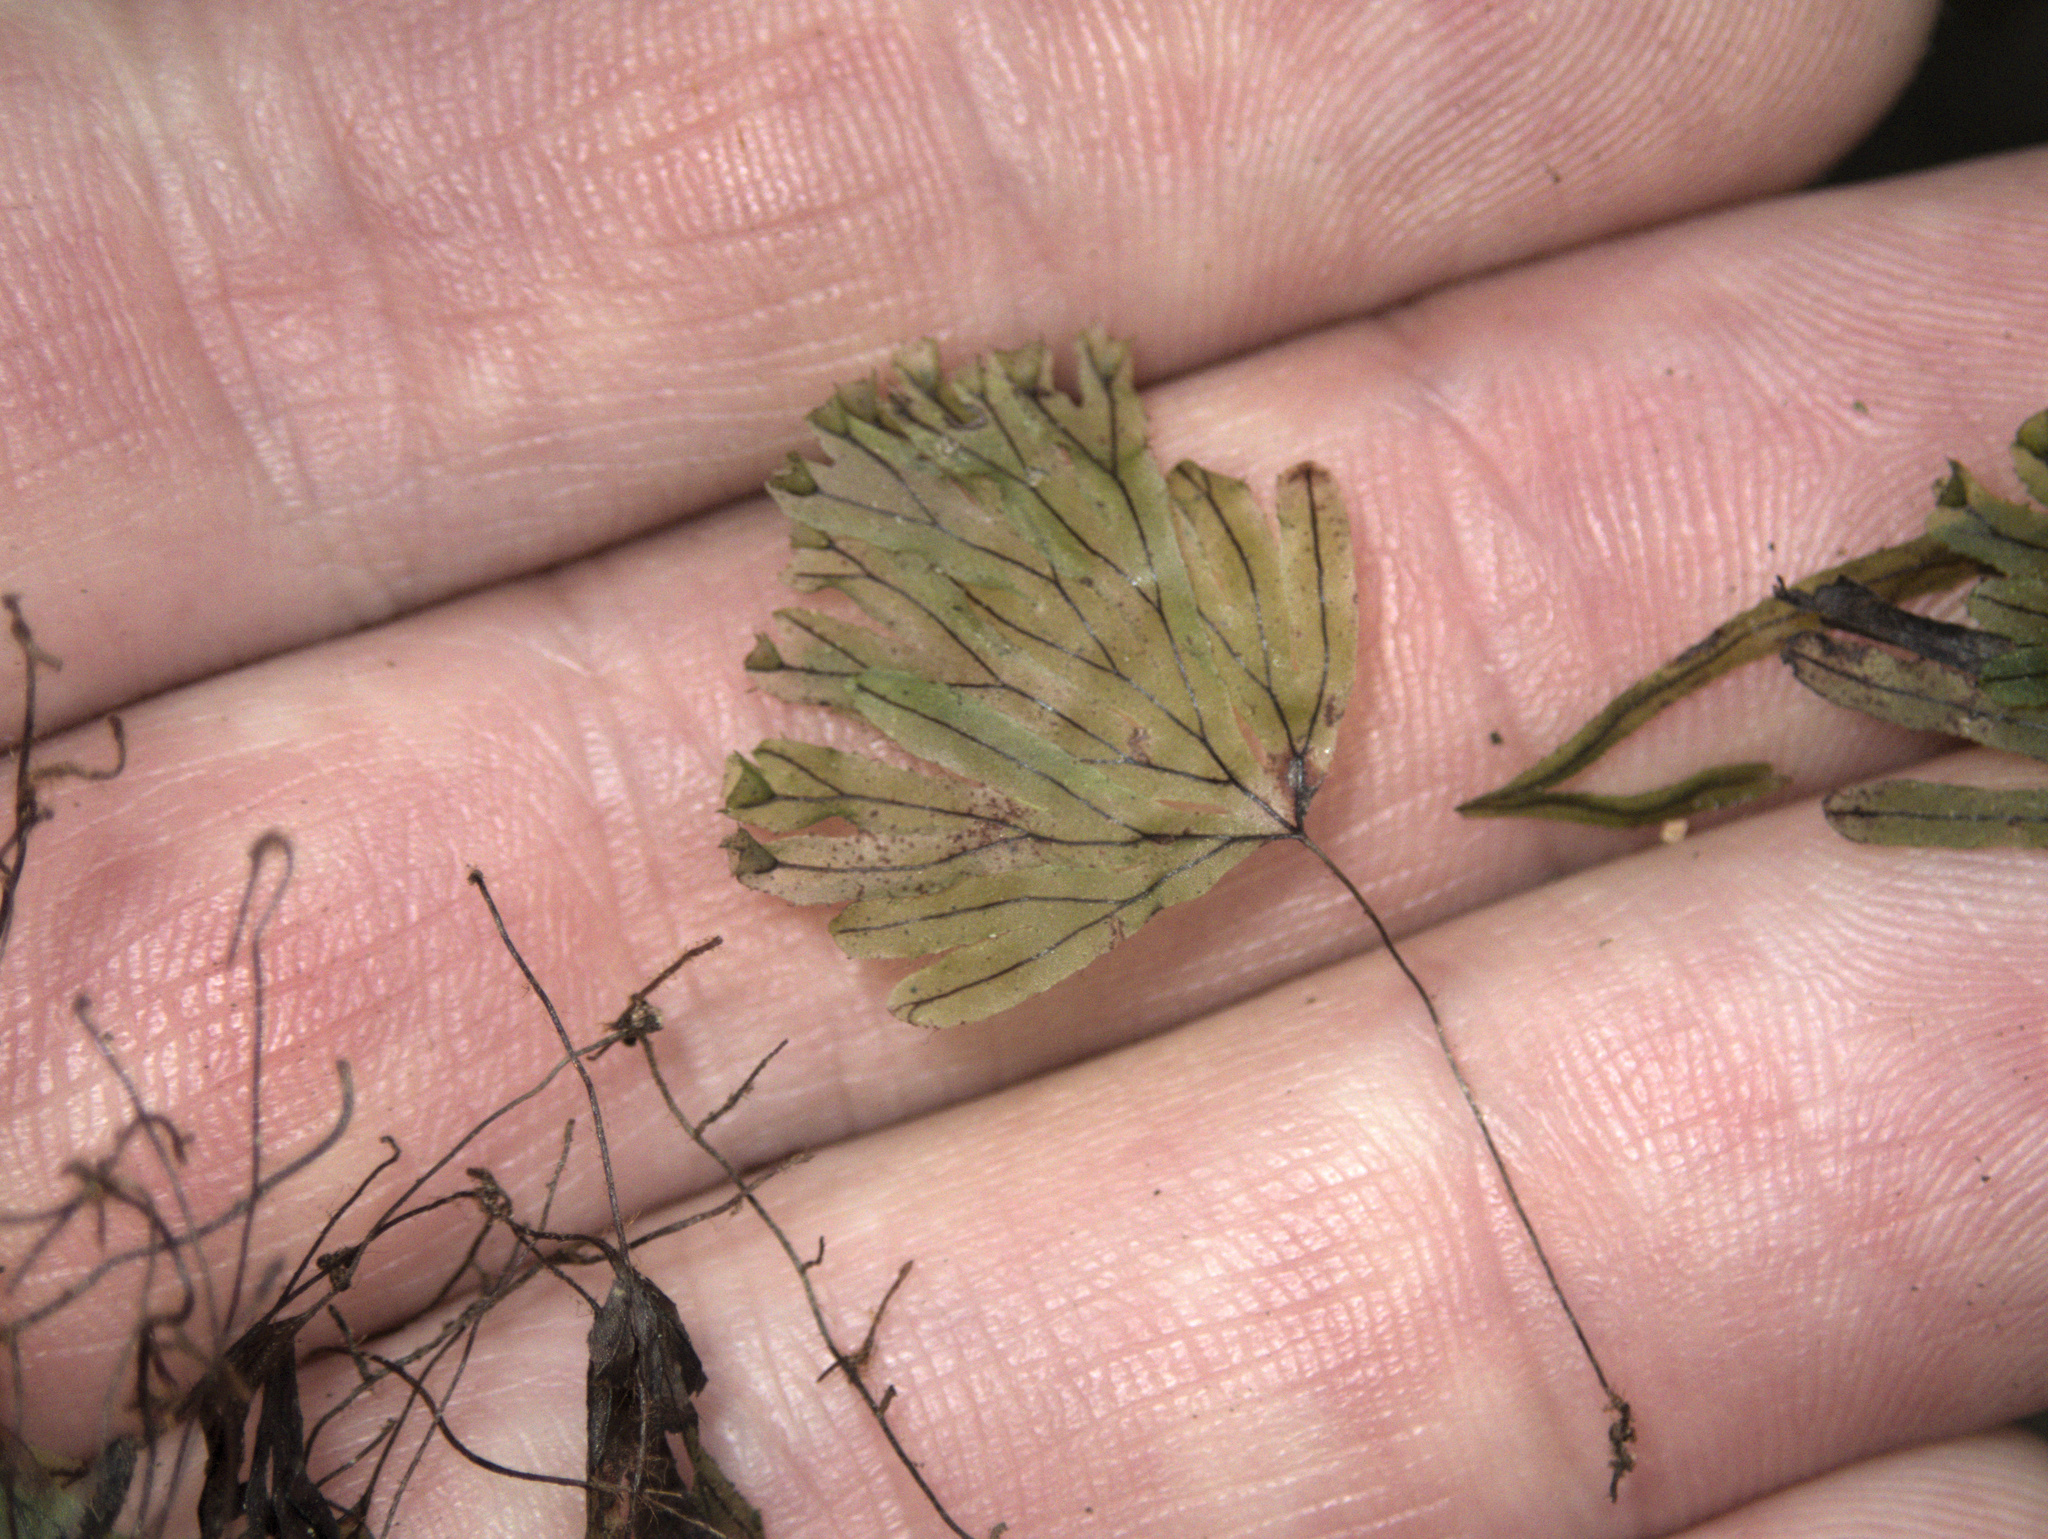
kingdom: Plantae
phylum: Tracheophyta
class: Polypodiopsida
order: Hymenophyllales
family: Hymenophyllaceae
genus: Hymenophyllum
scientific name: Hymenophyllum lyallii
